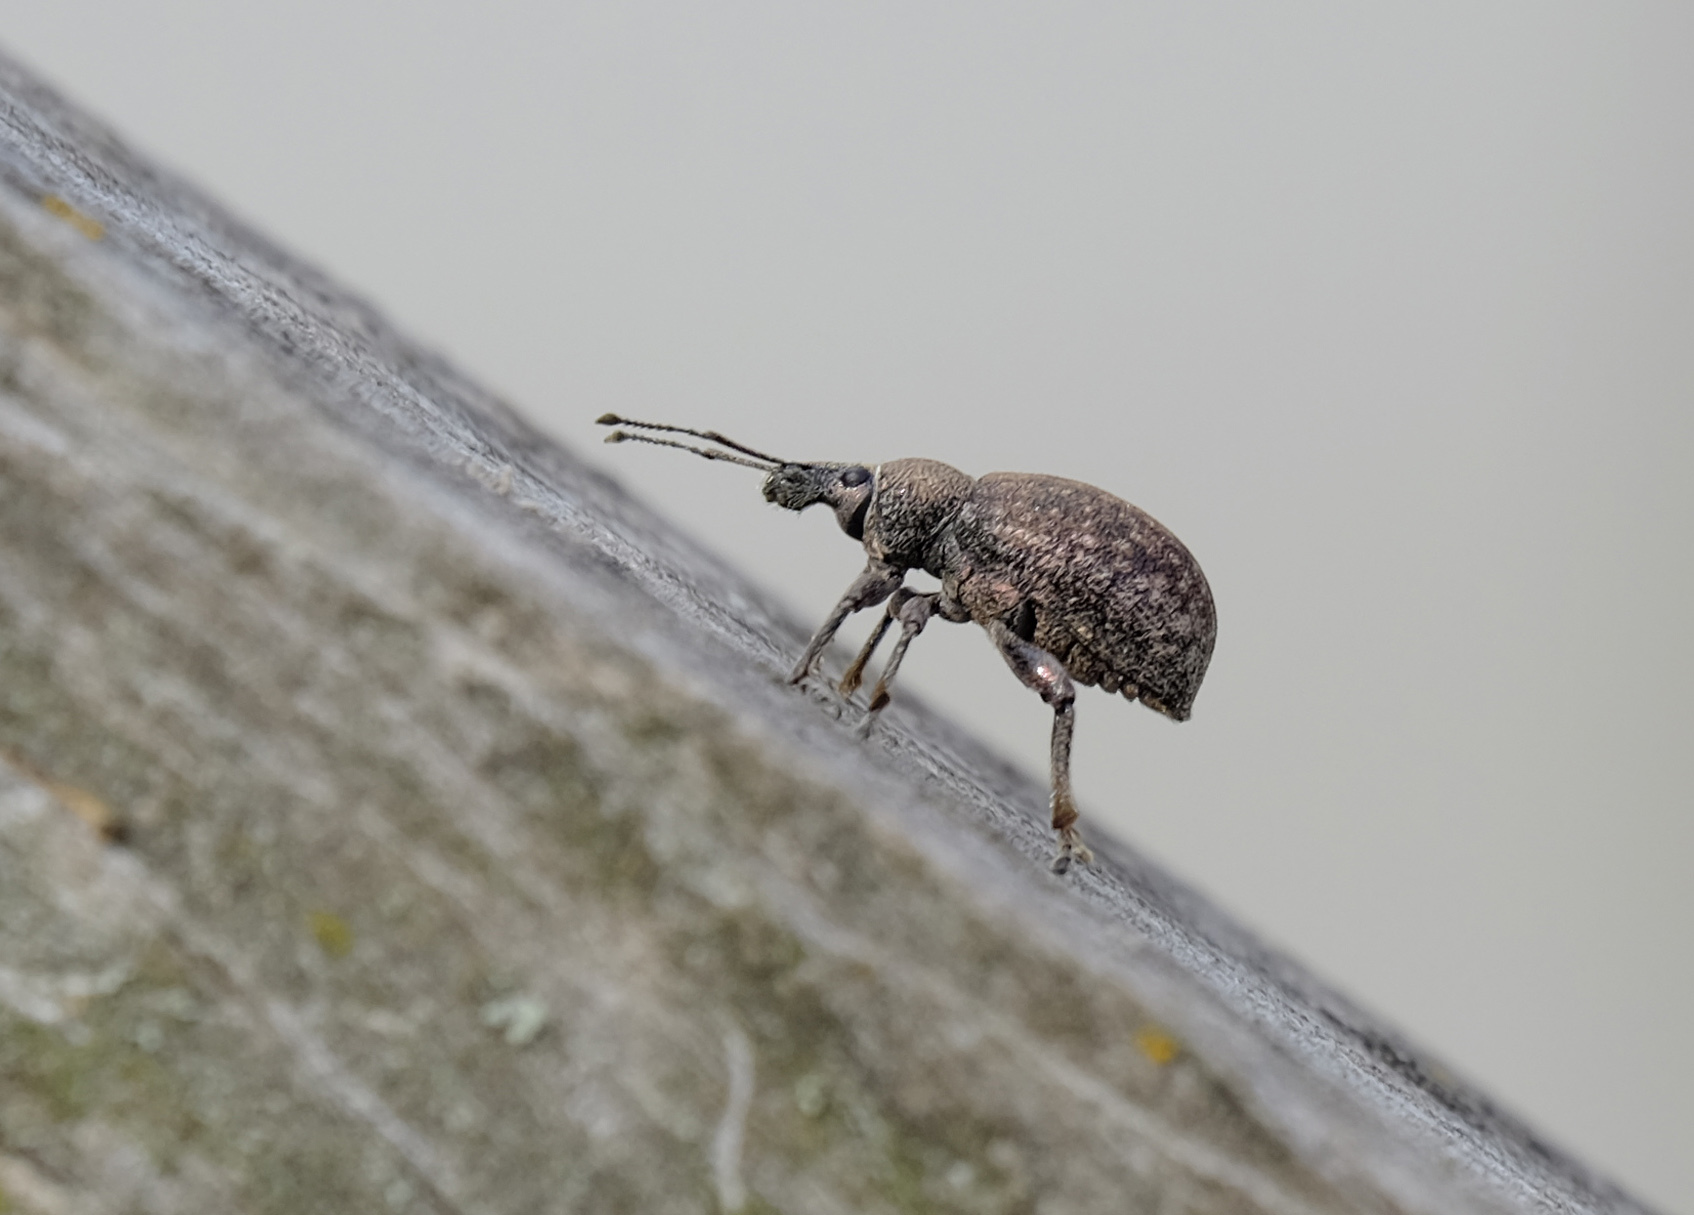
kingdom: Animalia
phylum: Arthropoda
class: Insecta
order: Coleoptera
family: Curculionidae
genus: Otiorhynchus
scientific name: Otiorhynchus ligustici
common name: Weevil
